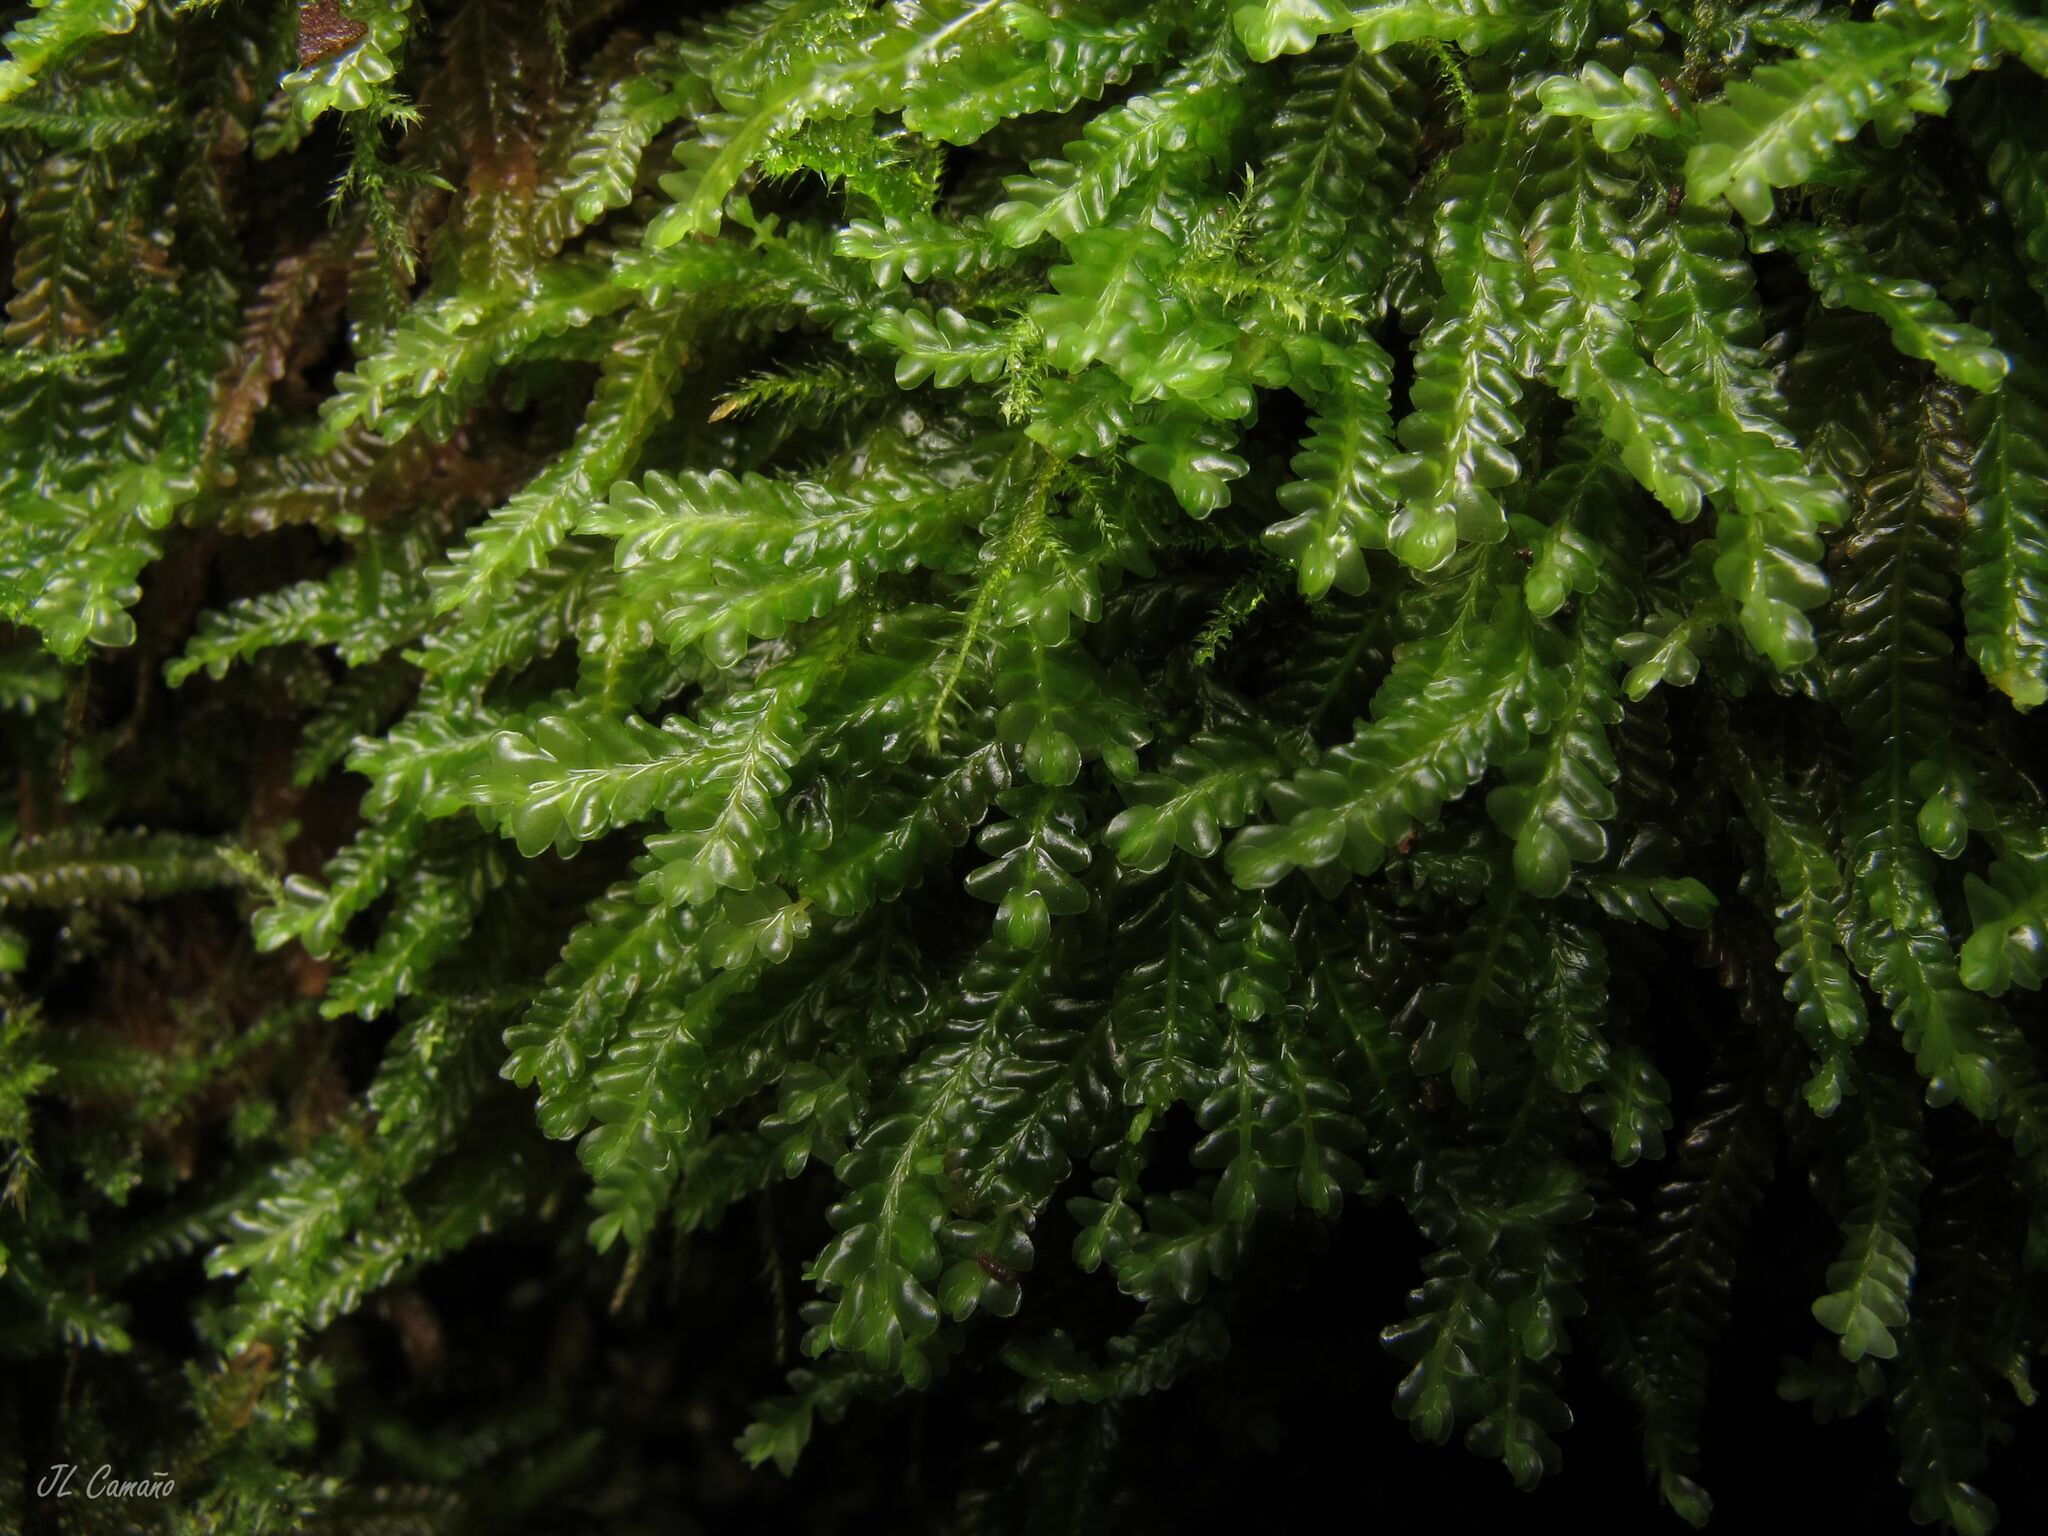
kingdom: Plantae
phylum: Marchantiophyta
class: Jungermanniopsida
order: Jungermanniales
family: Saccogynaceae
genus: Saccogyna
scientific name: Saccogyna viticulosa
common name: Straggling pouchwort
